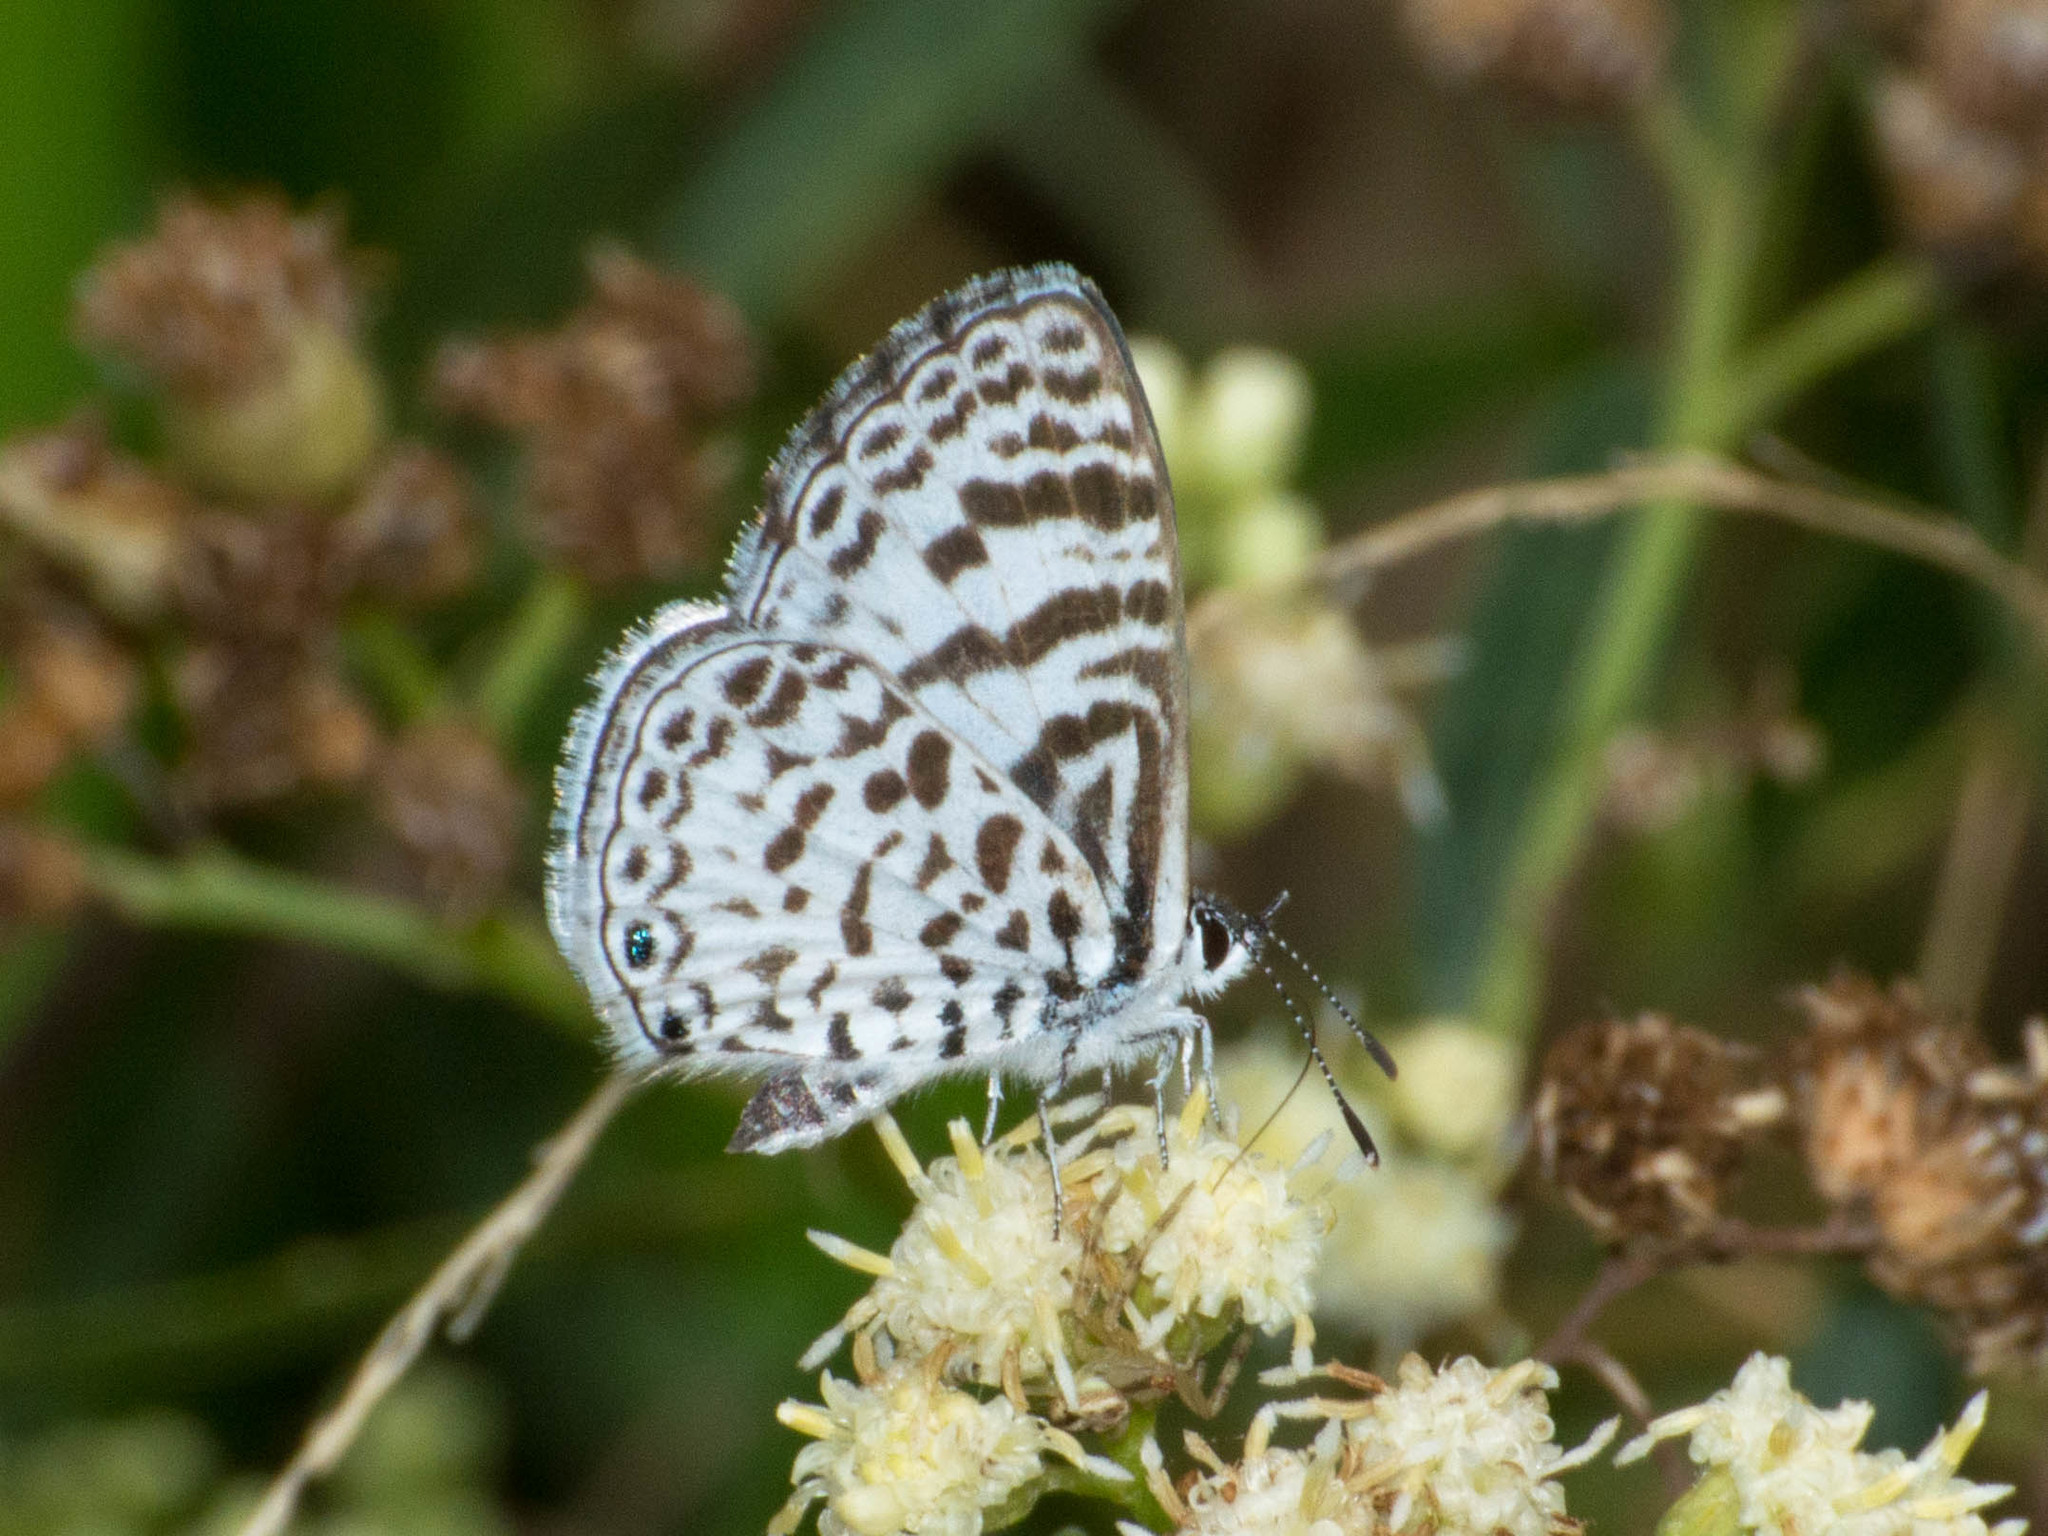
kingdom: Animalia
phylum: Arthropoda
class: Insecta
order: Lepidoptera
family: Lycaenidae
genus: Leptotes
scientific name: Leptotes cassius
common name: Cassius blue
